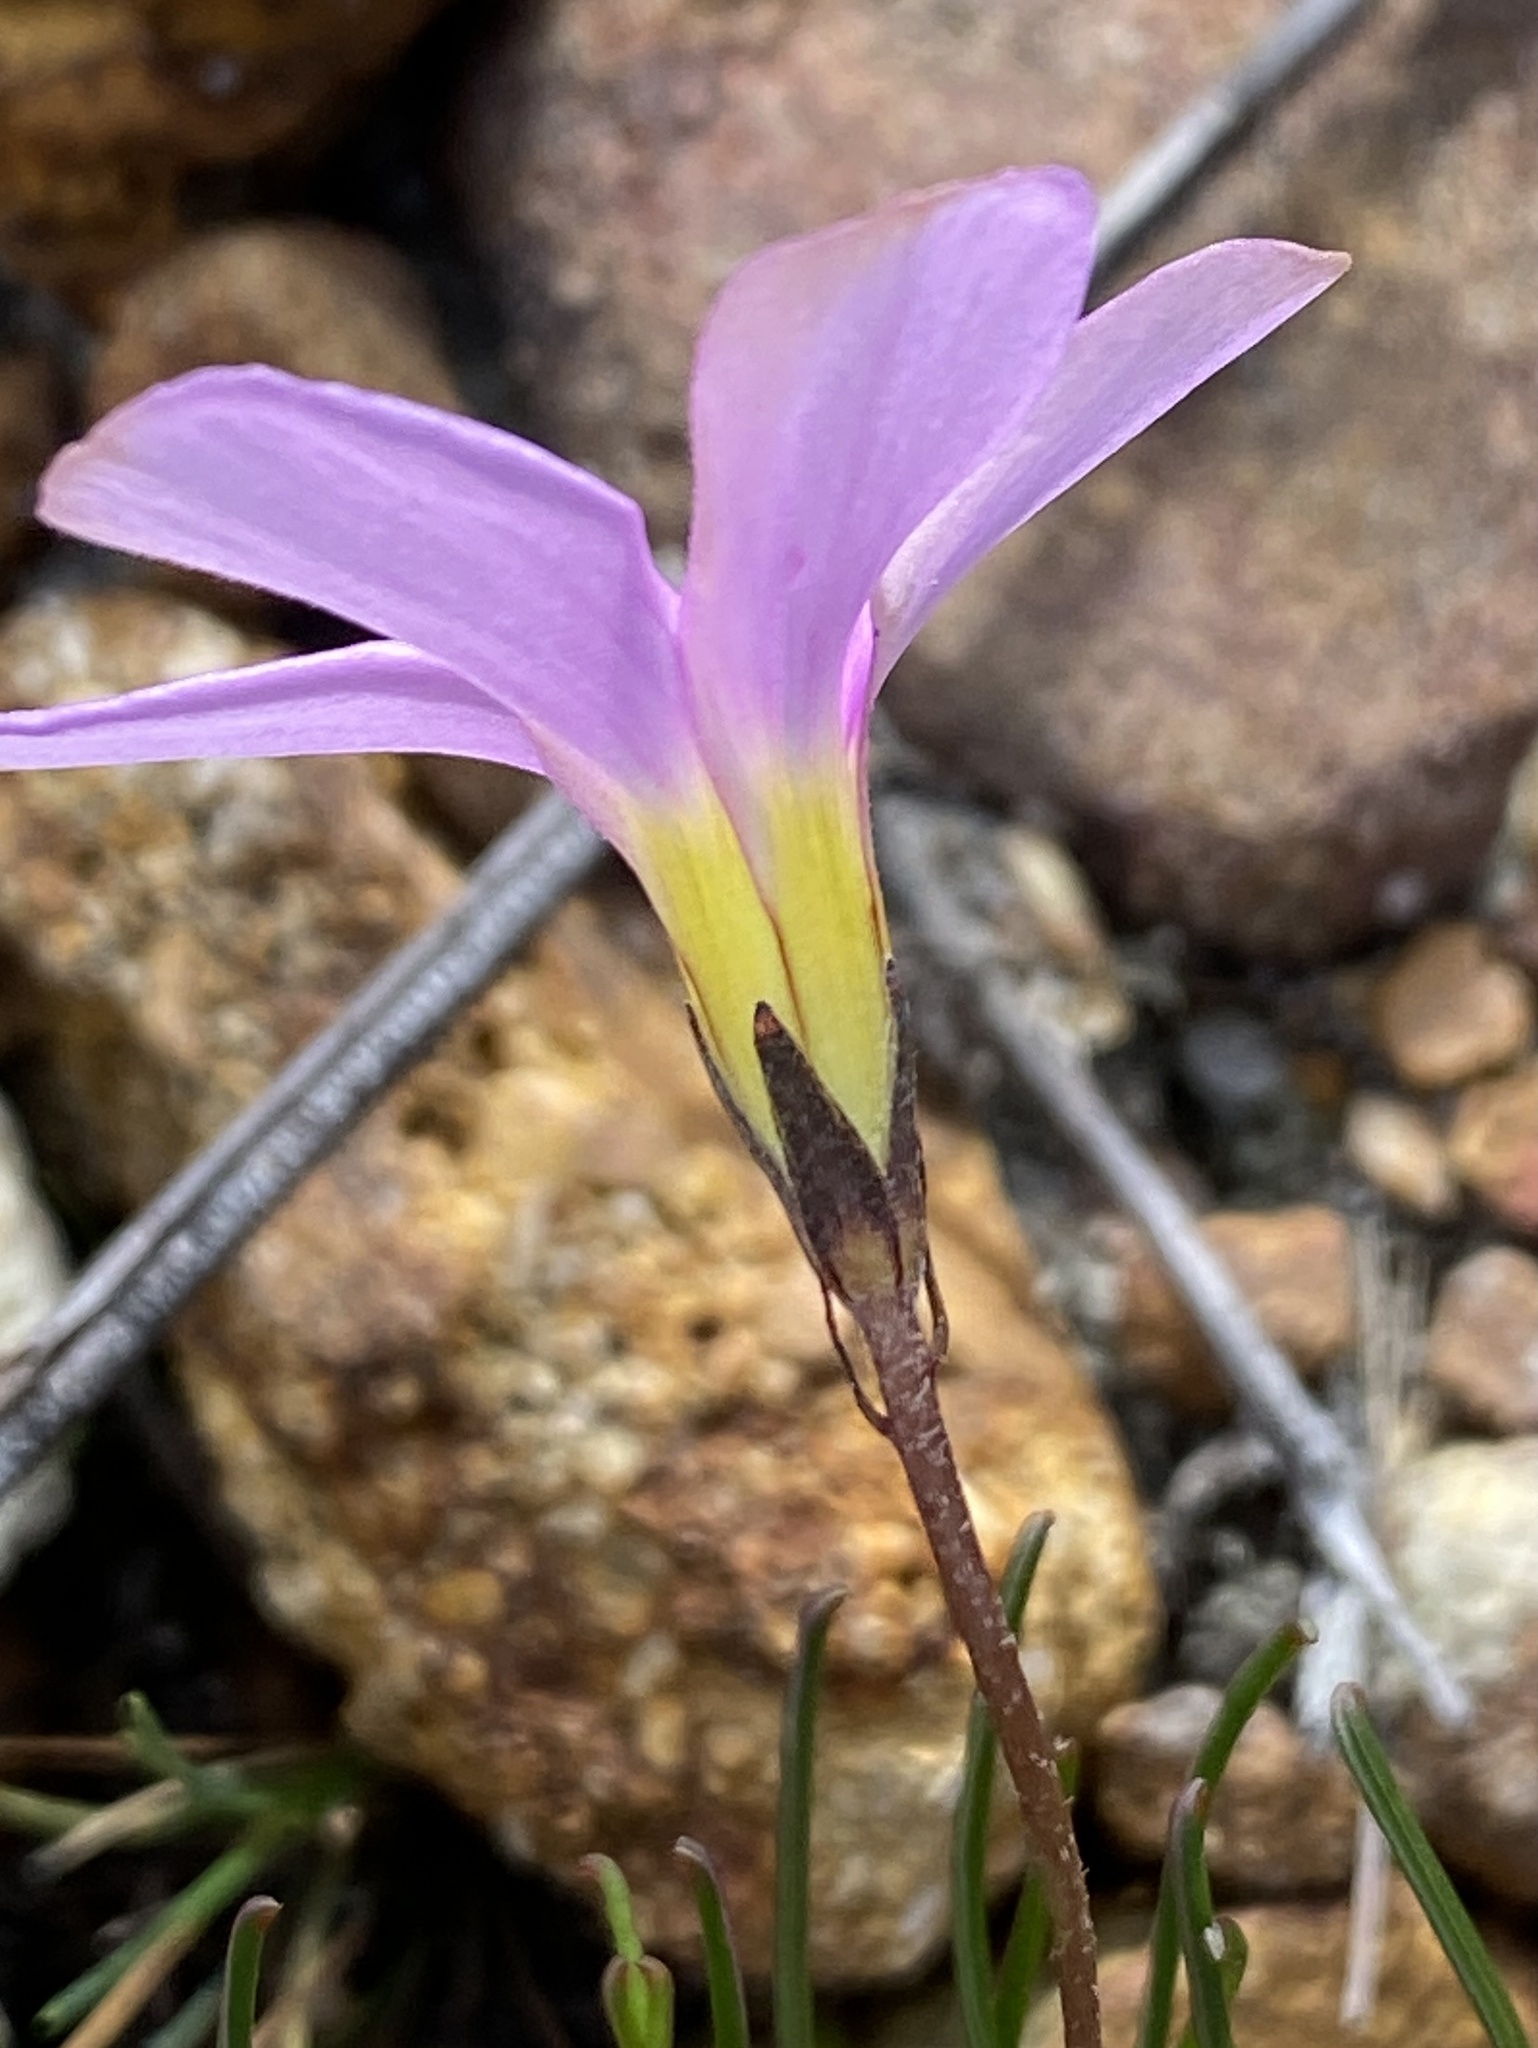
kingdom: Plantae
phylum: Tracheophyta
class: Magnoliopsida
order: Oxalidales
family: Oxalidaceae
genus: Oxalis
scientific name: Oxalis polyphylla
